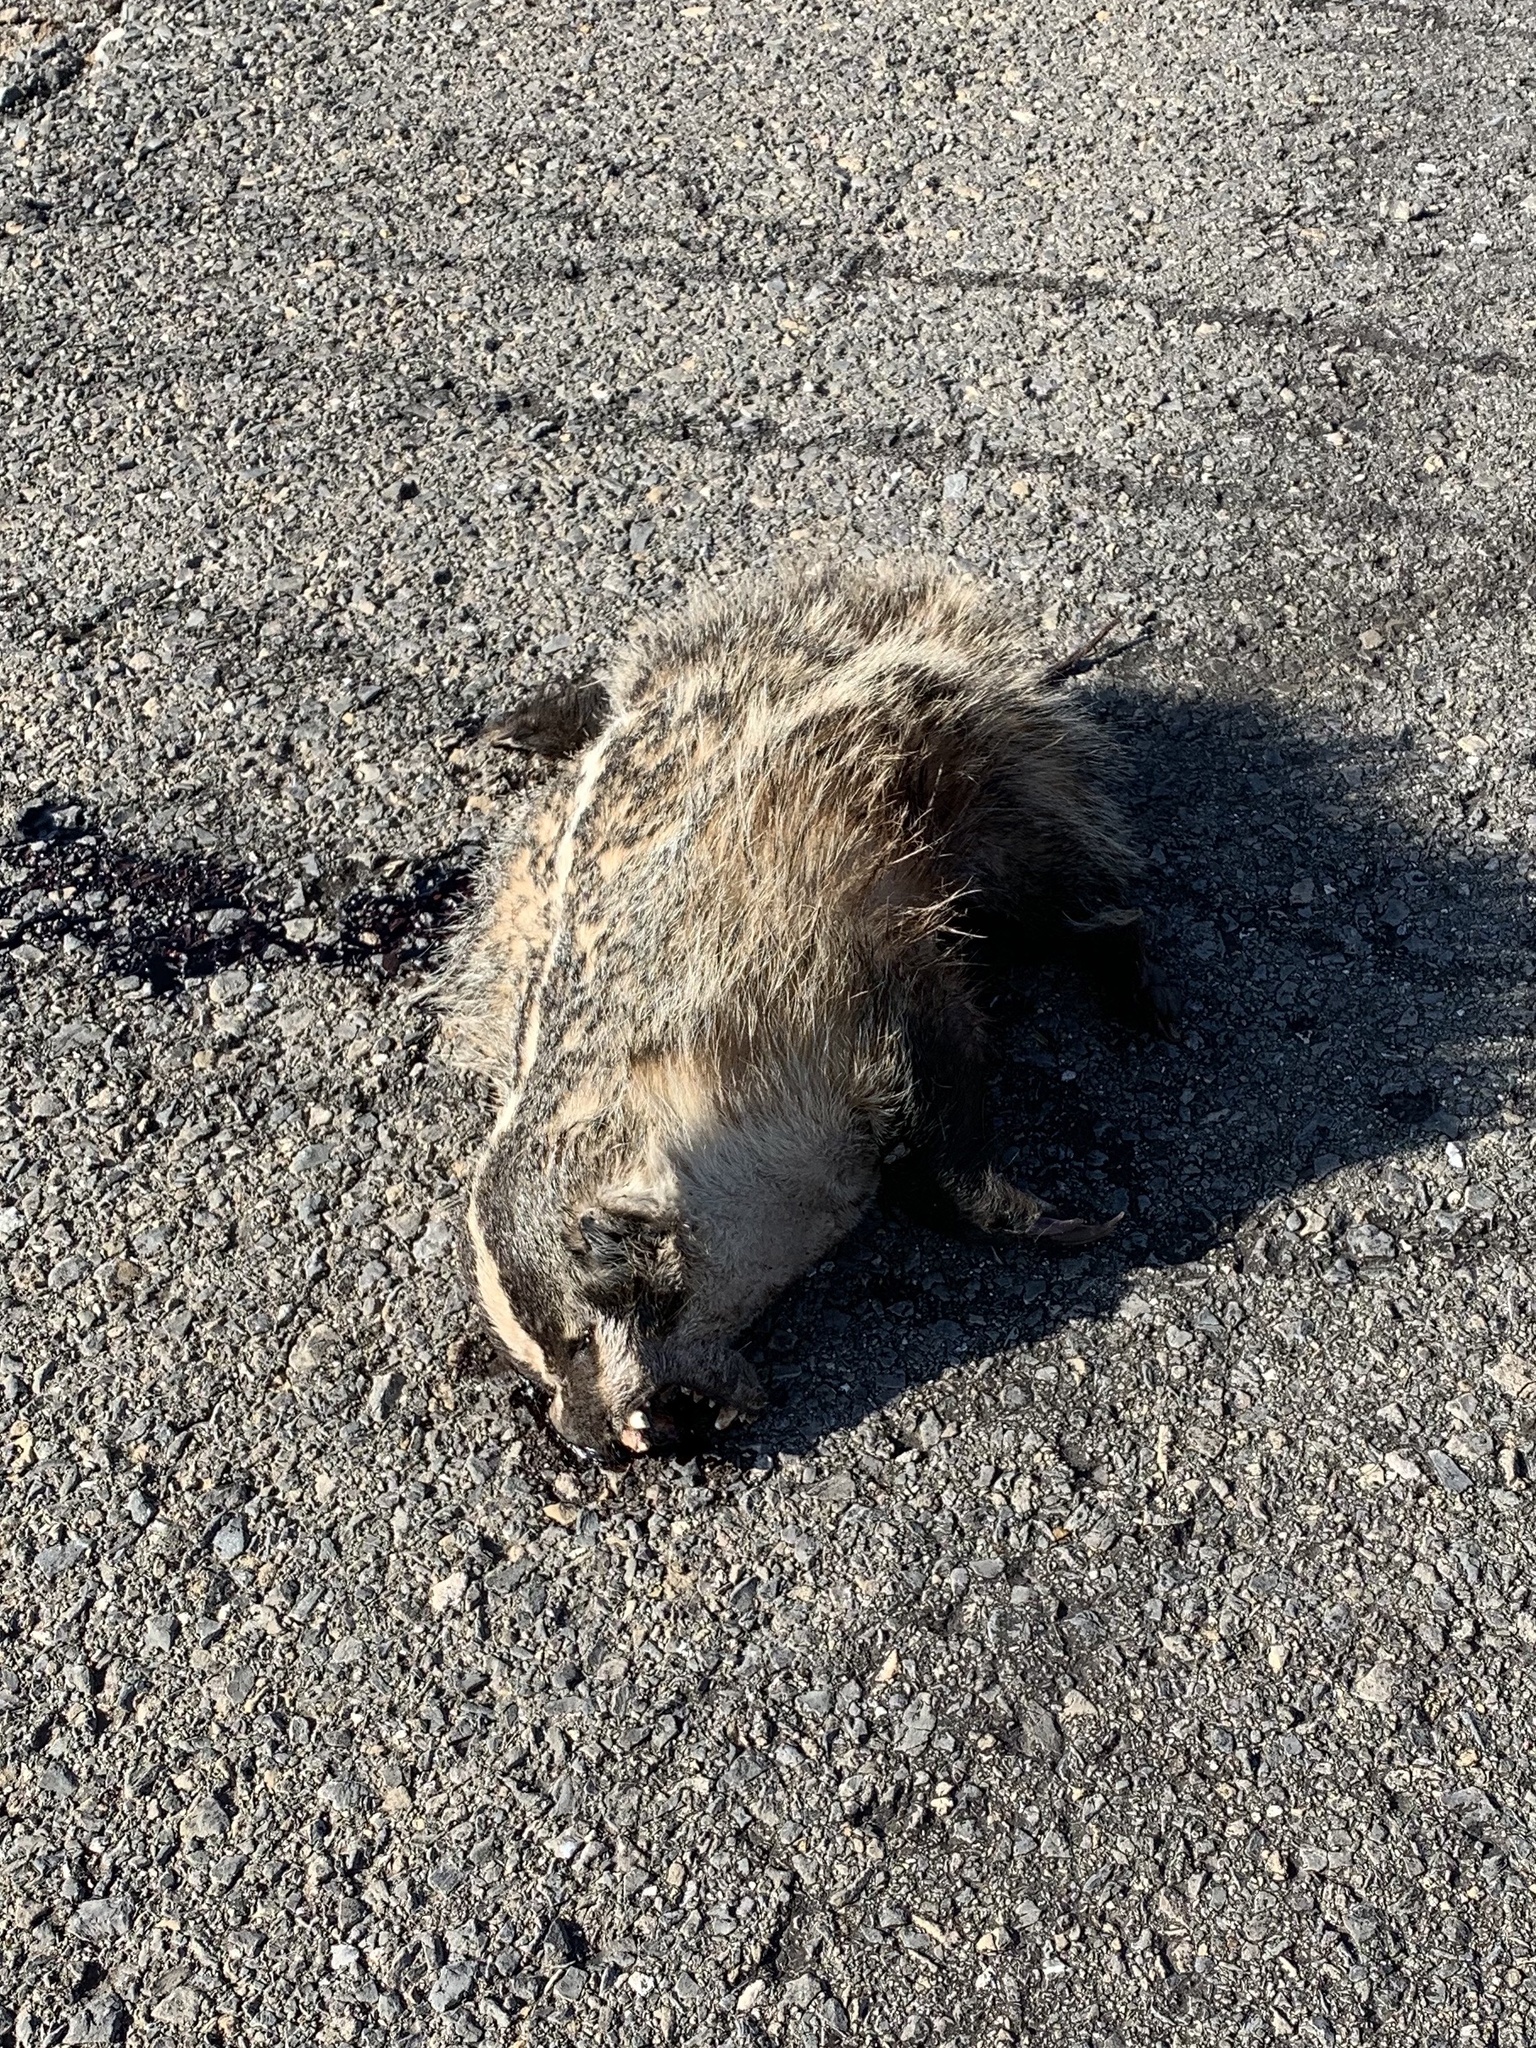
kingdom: Animalia
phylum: Chordata
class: Mammalia
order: Carnivora
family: Mustelidae
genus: Taxidea
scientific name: Taxidea taxus
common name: American badger
